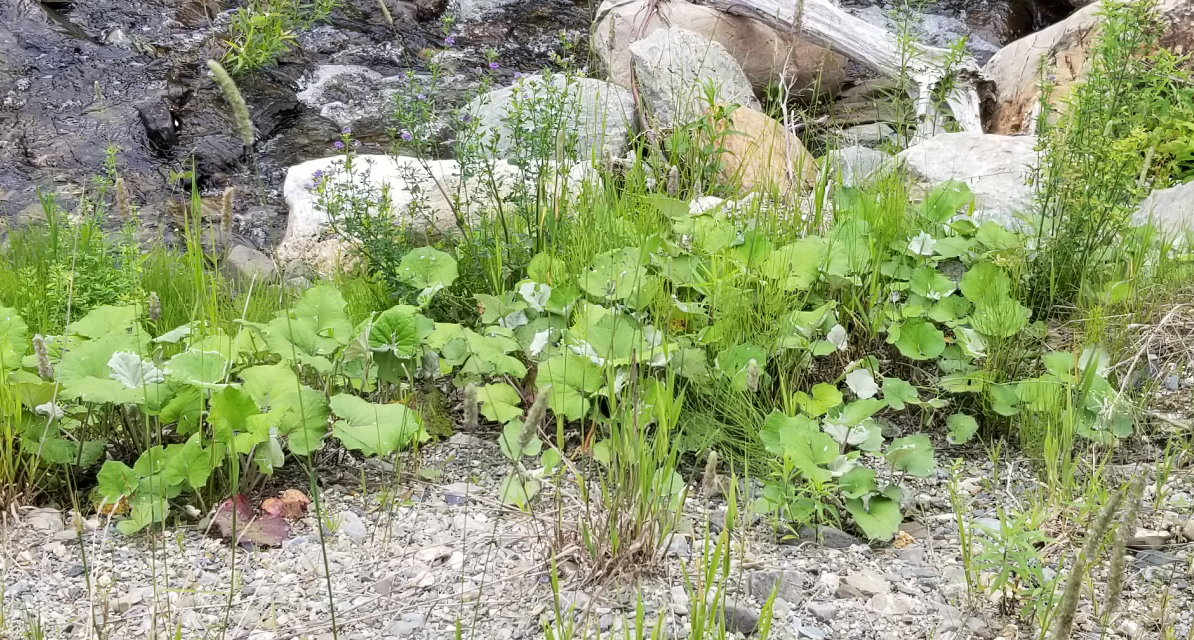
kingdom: Plantae
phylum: Tracheophyta
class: Magnoliopsida
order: Asterales
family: Asteraceae
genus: Tussilago
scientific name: Tussilago farfara
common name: Coltsfoot
